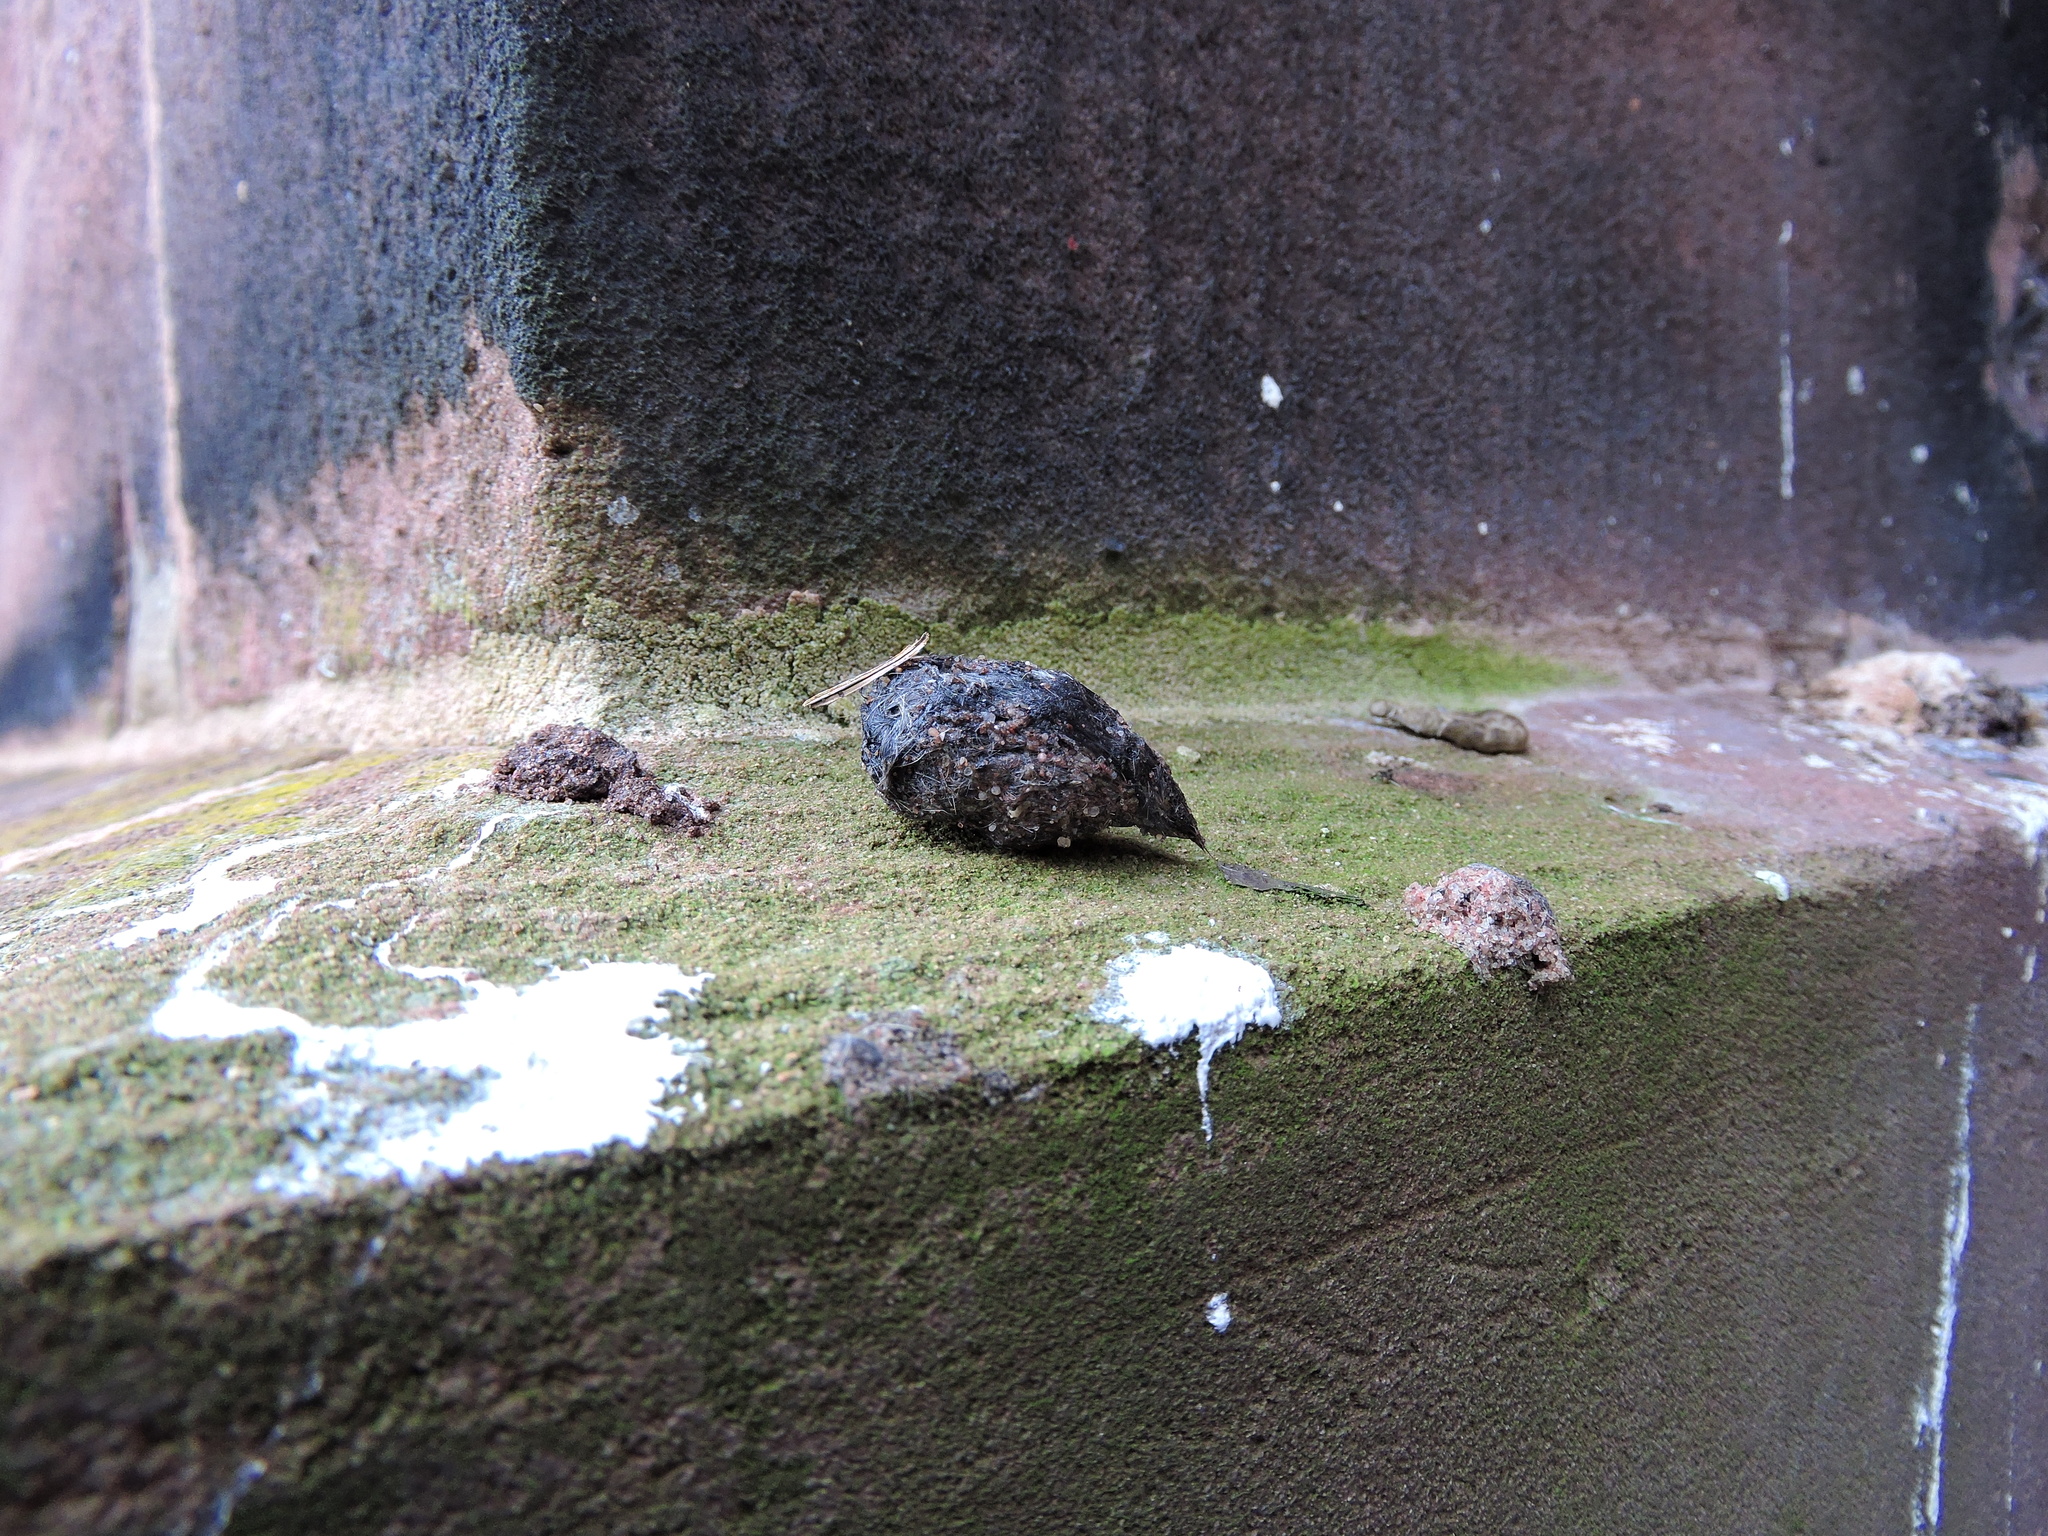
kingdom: Animalia
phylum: Chordata
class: Aves
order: Strigiformes
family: Tytonidae
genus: Tyto
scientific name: Tyto alba
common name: Barn owl
